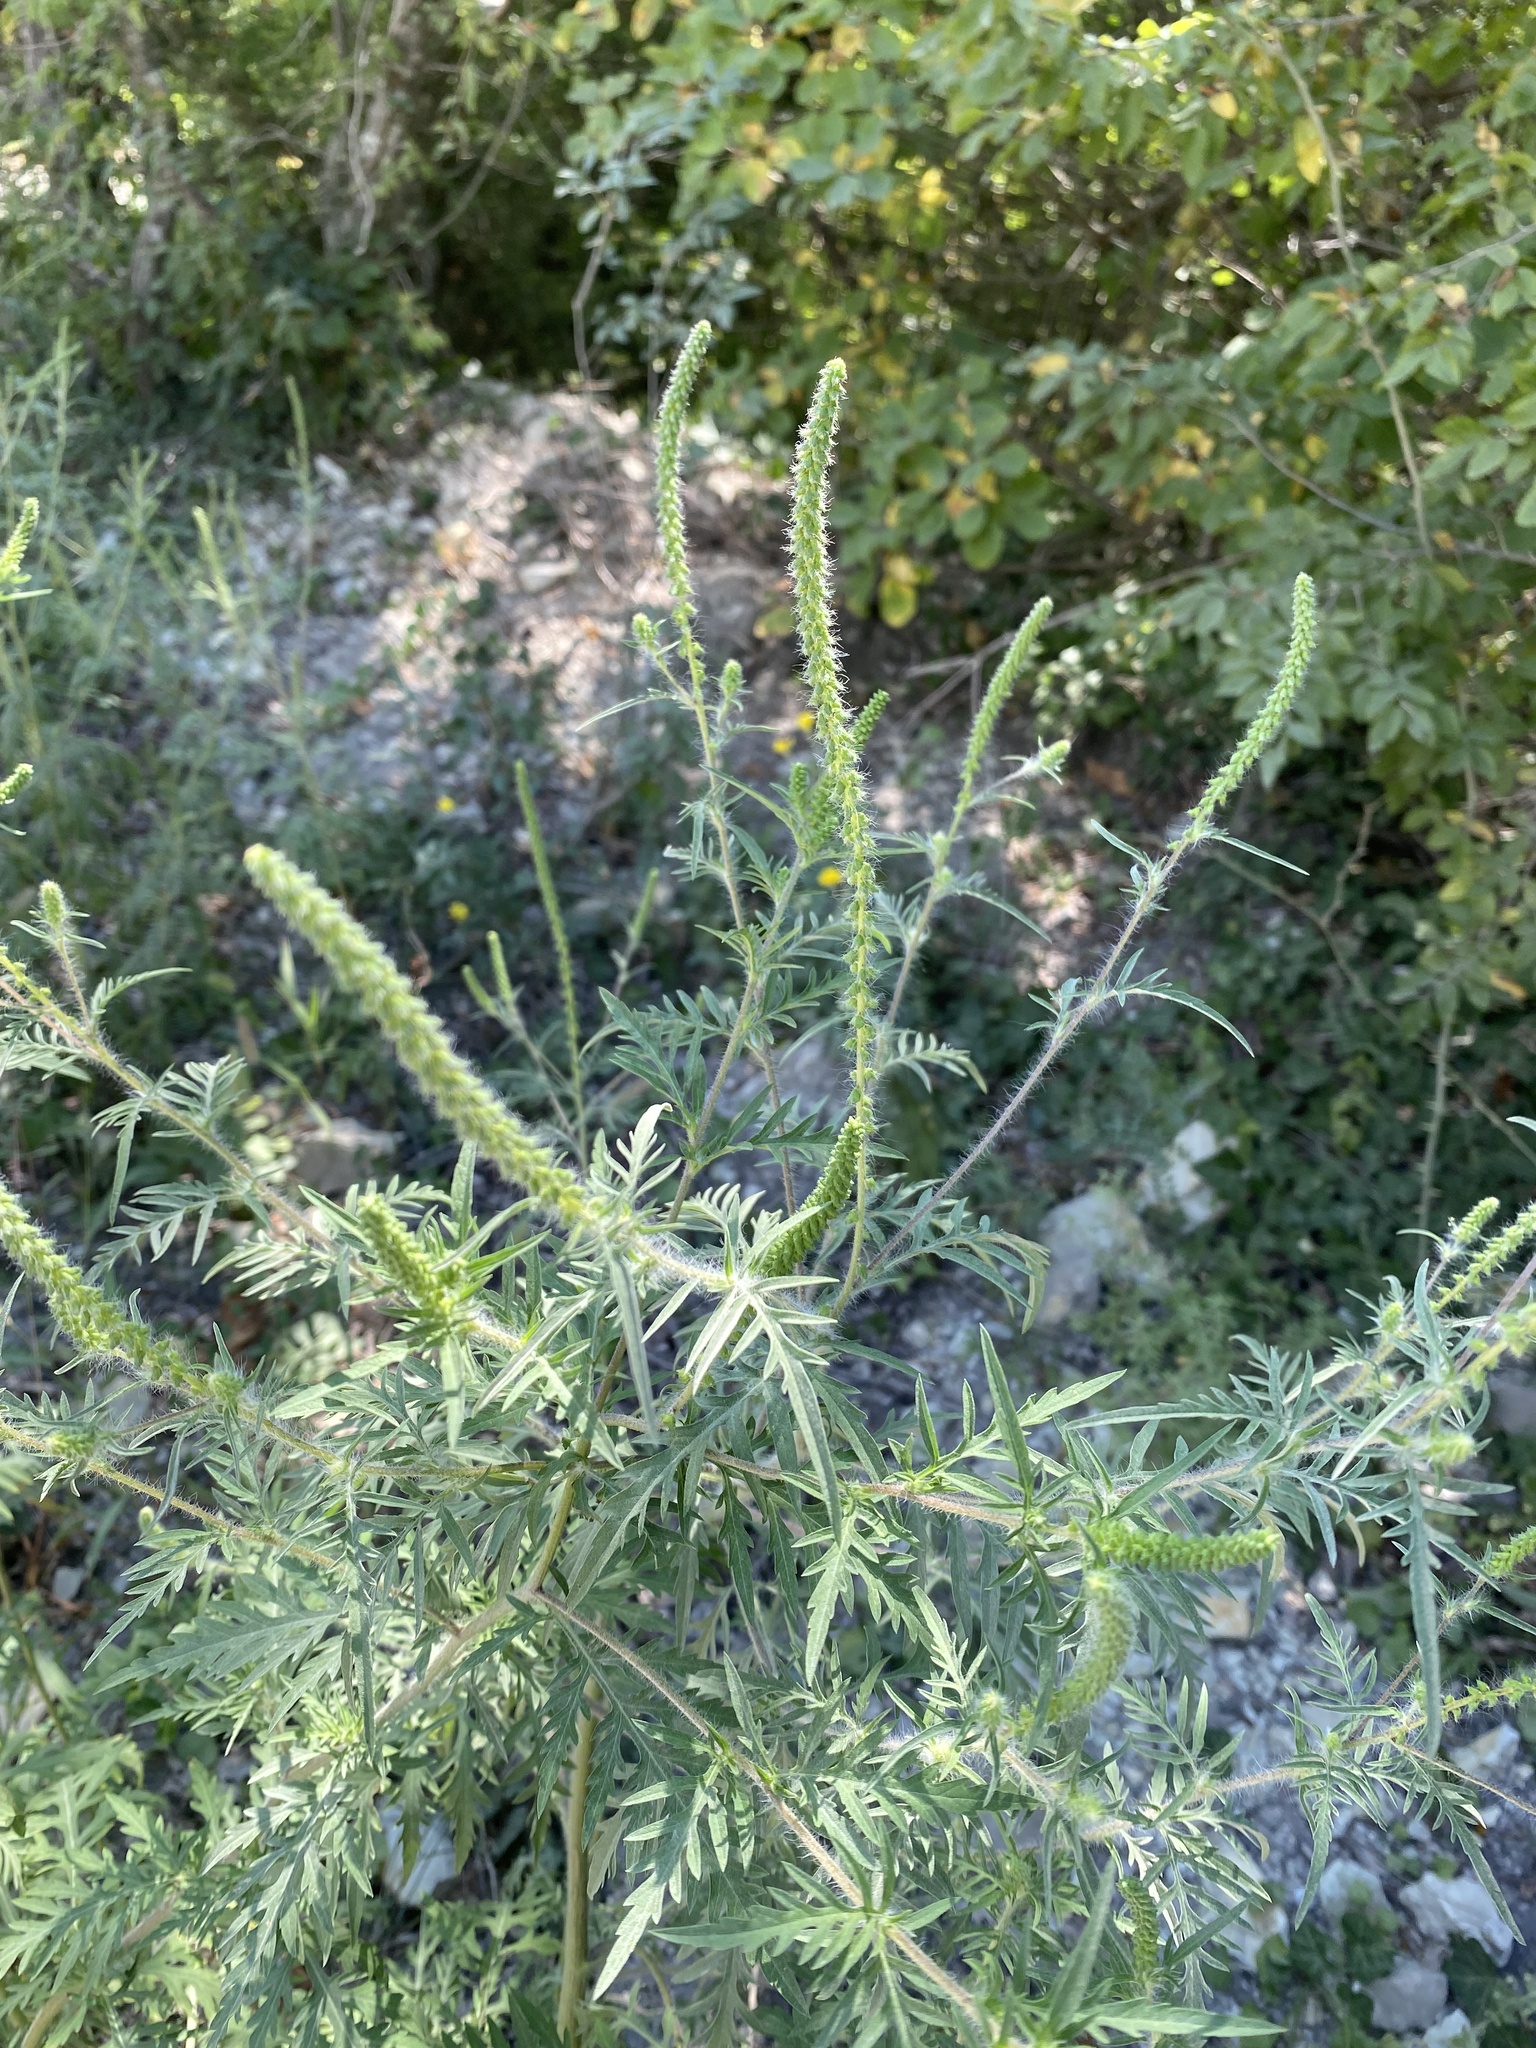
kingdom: Plantae
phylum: Tracheophyta
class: Magnoliopsida
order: Asterales
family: Asteraceae
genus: Ambrosia
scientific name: Ambrosia artemisiifolia
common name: Annual ragweed
